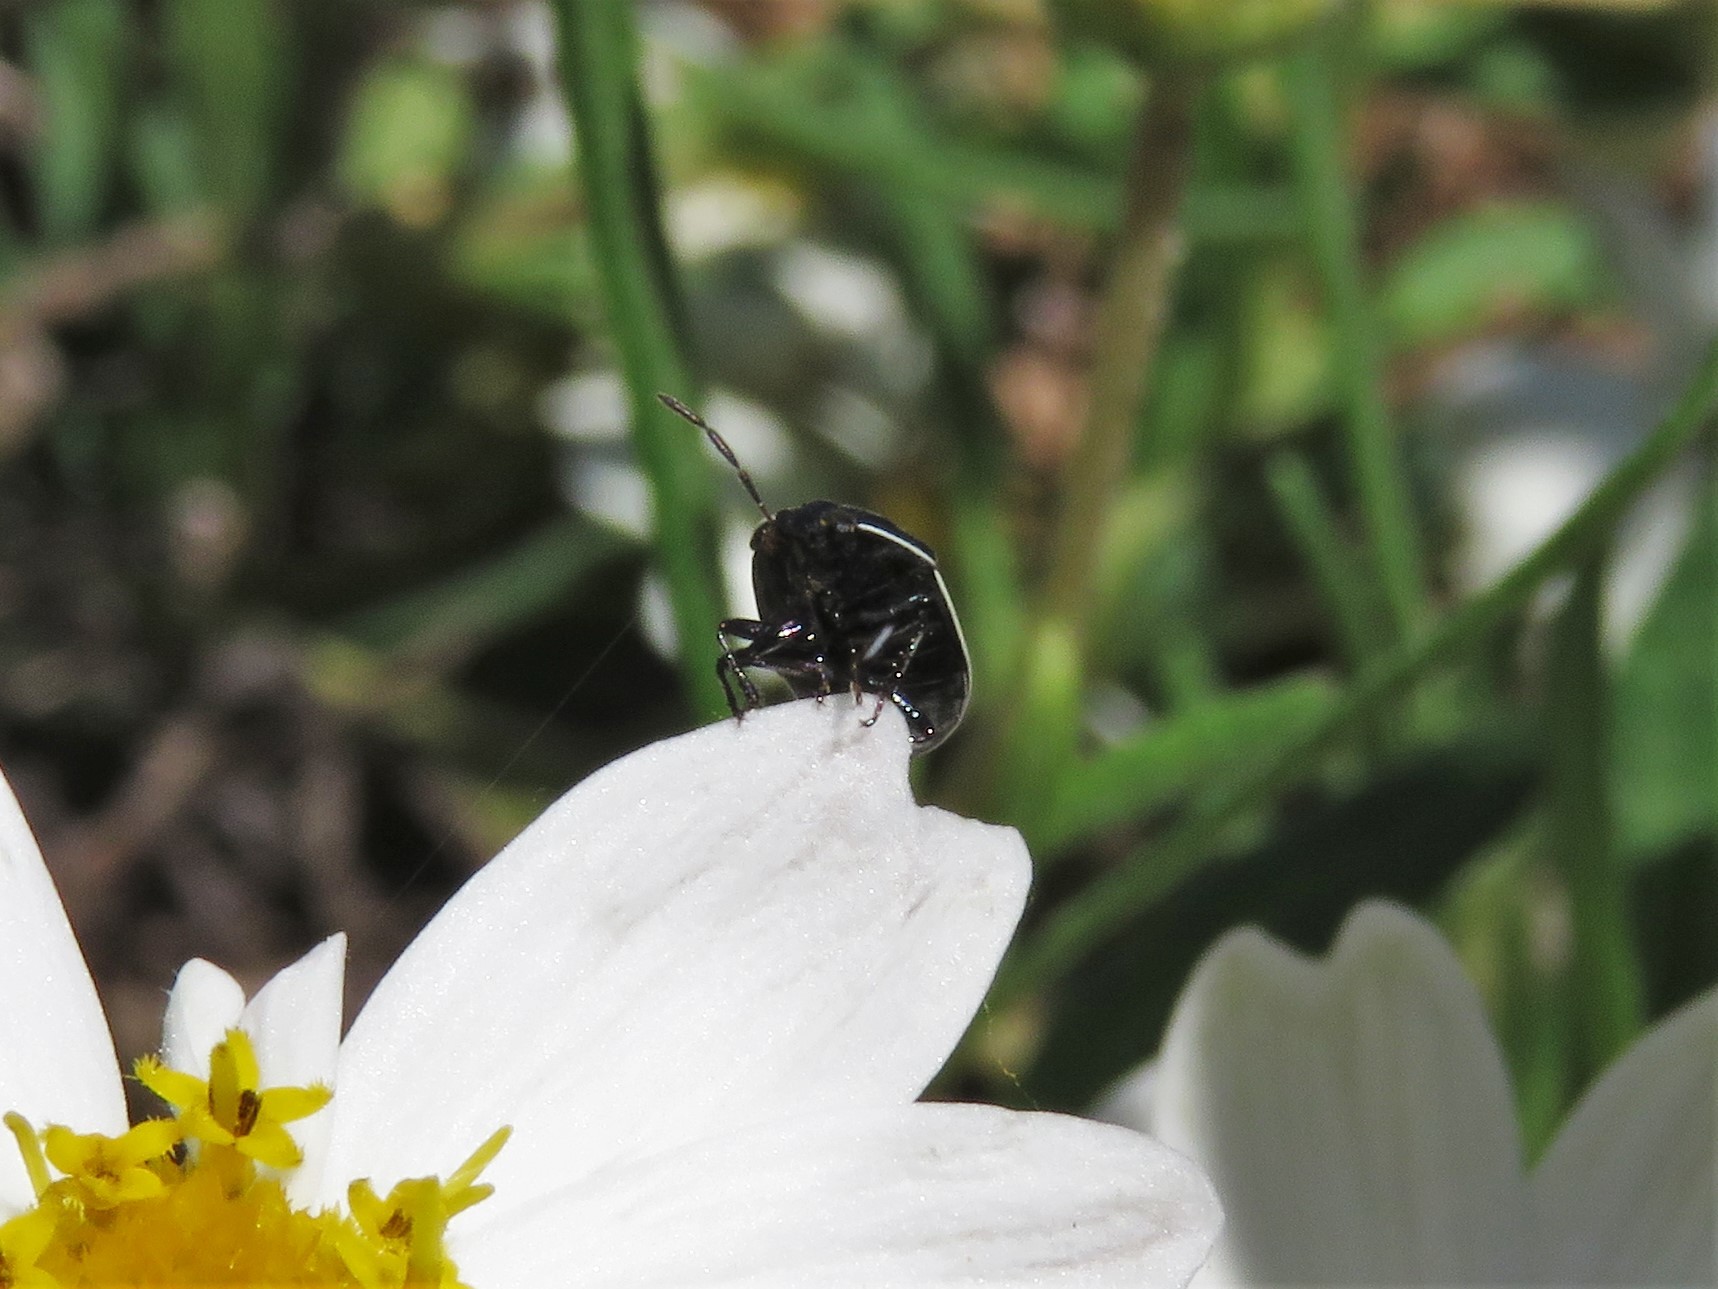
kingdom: Animalia
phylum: Arthropoda
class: Insecta
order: Hemiptera
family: Cydnidae
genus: Sehirus
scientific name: Sehirus cinctus
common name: White-margined burrower bug
